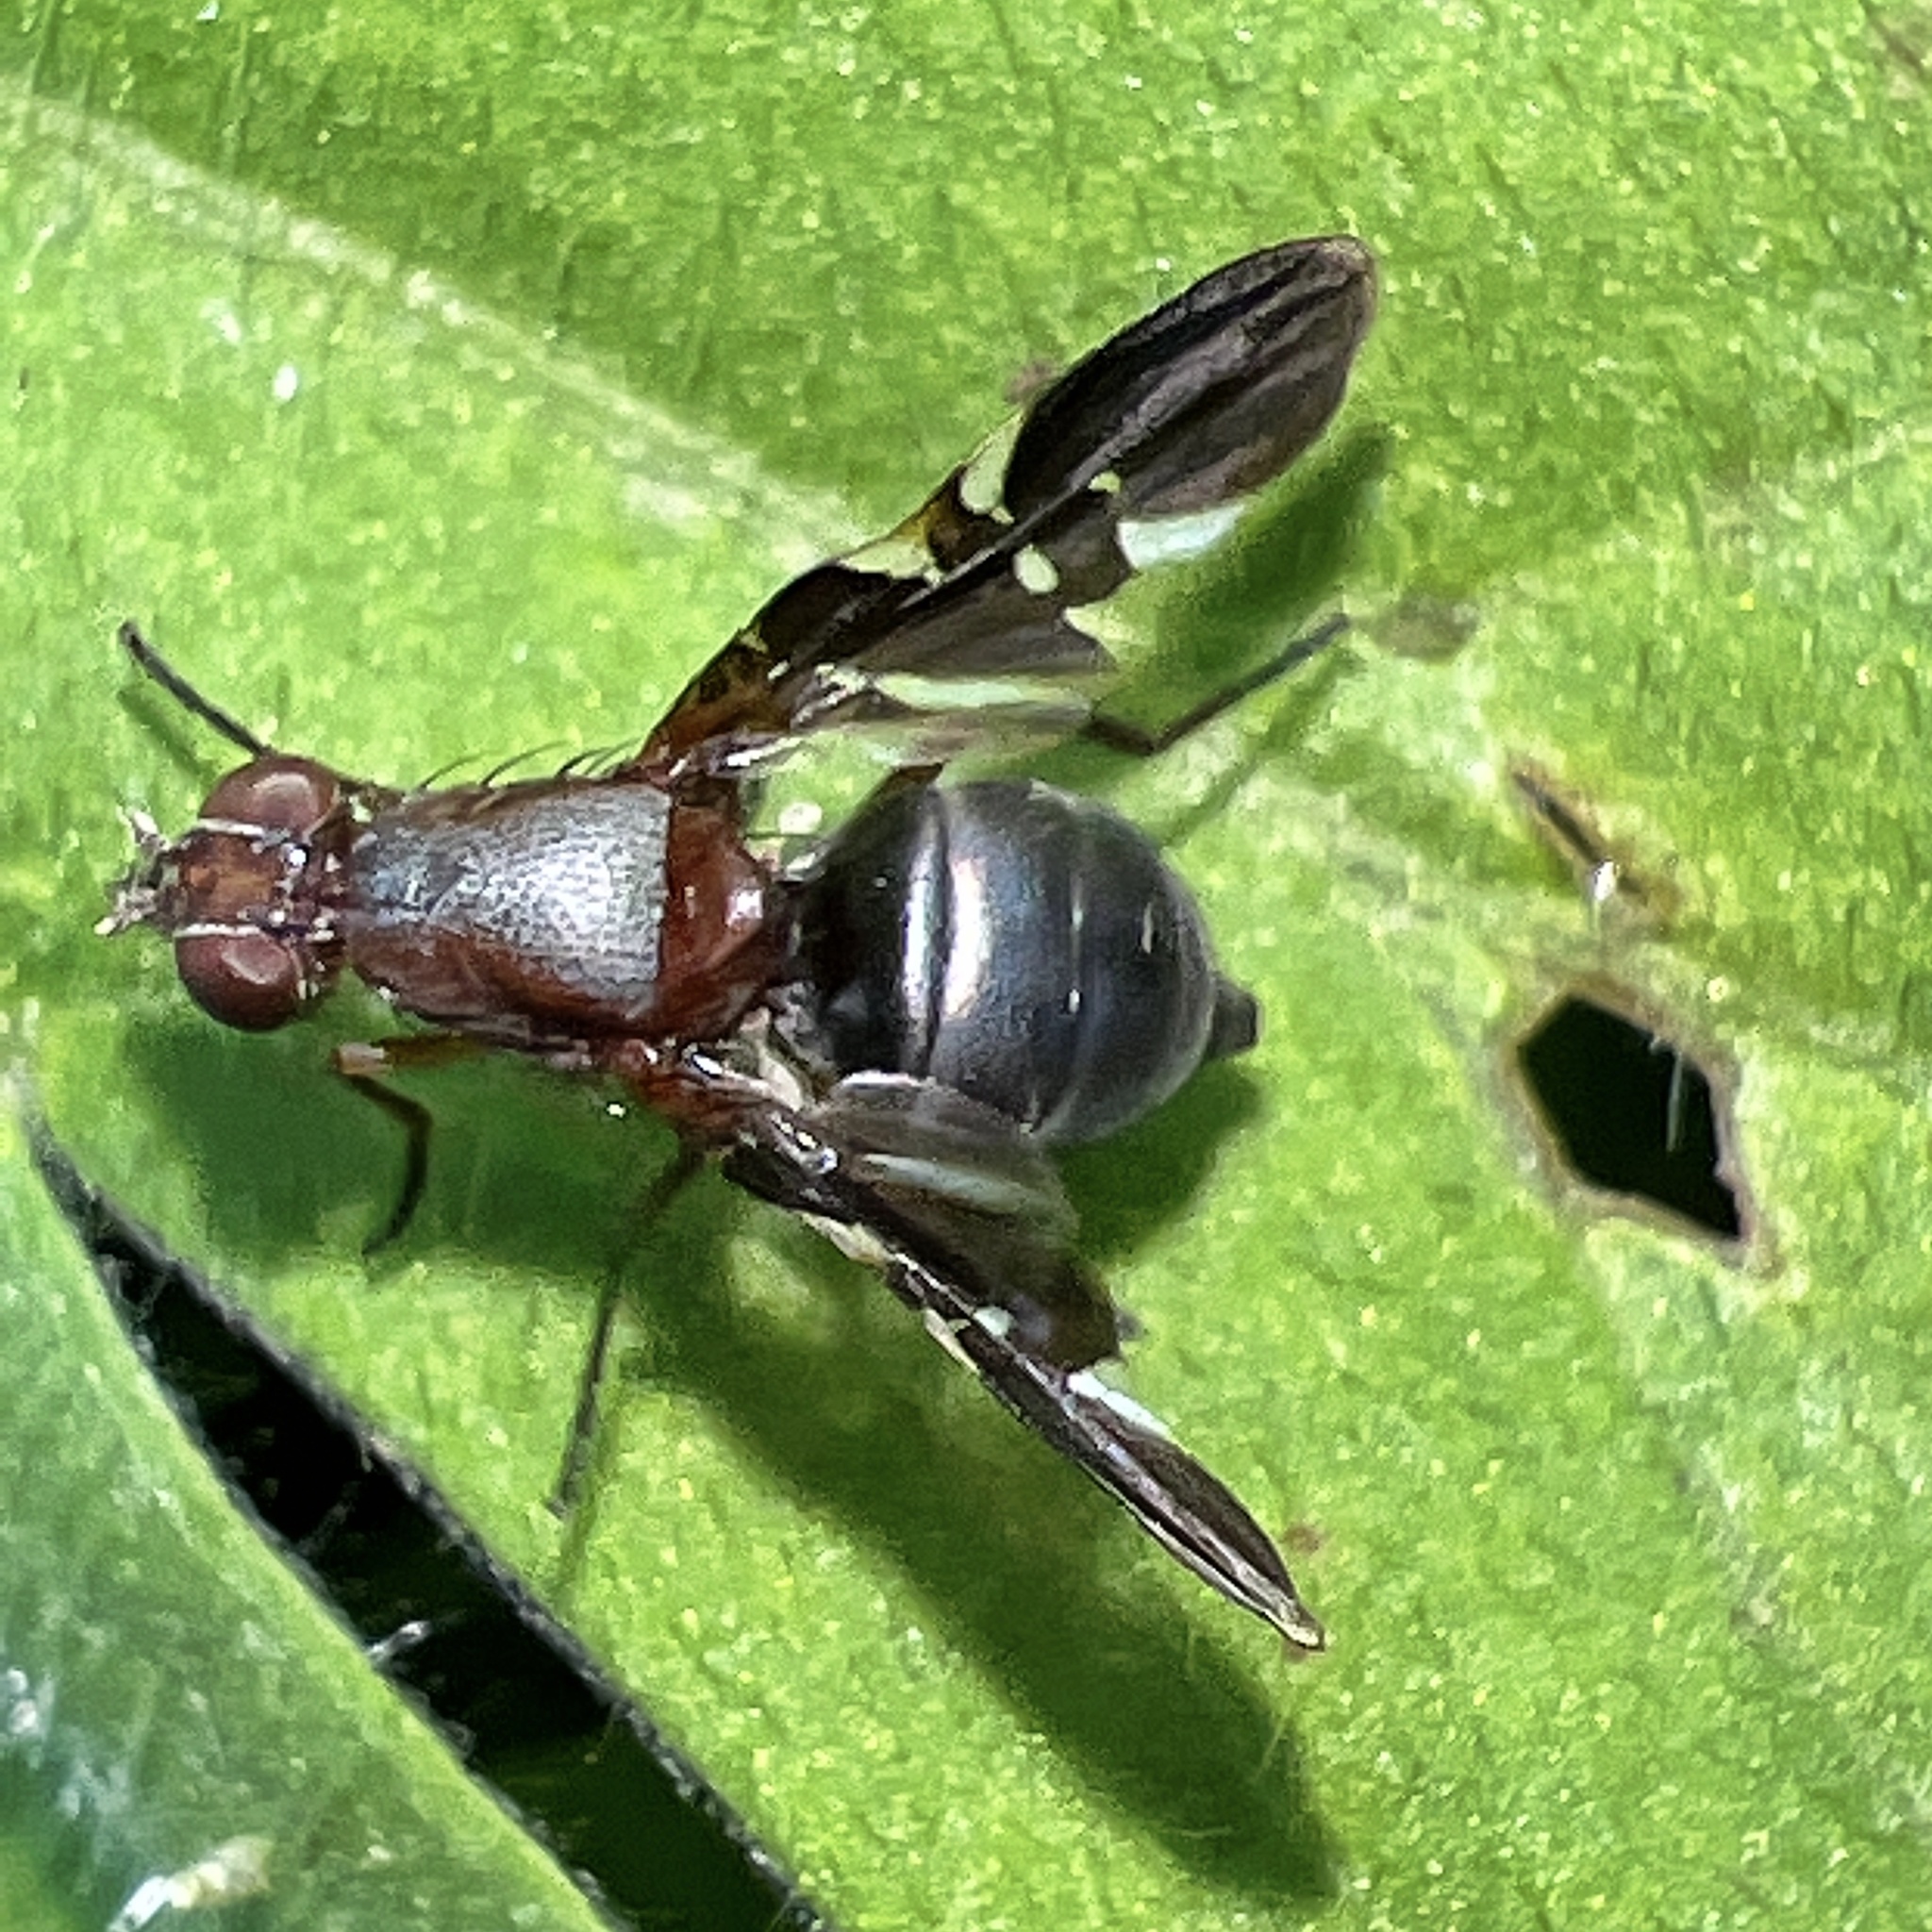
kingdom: Animalia
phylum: Arthropoda
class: Insecta
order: Diptera
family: Ulidiidae
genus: Delphinia
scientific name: Delphinia picta
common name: Common picture-winged fly
